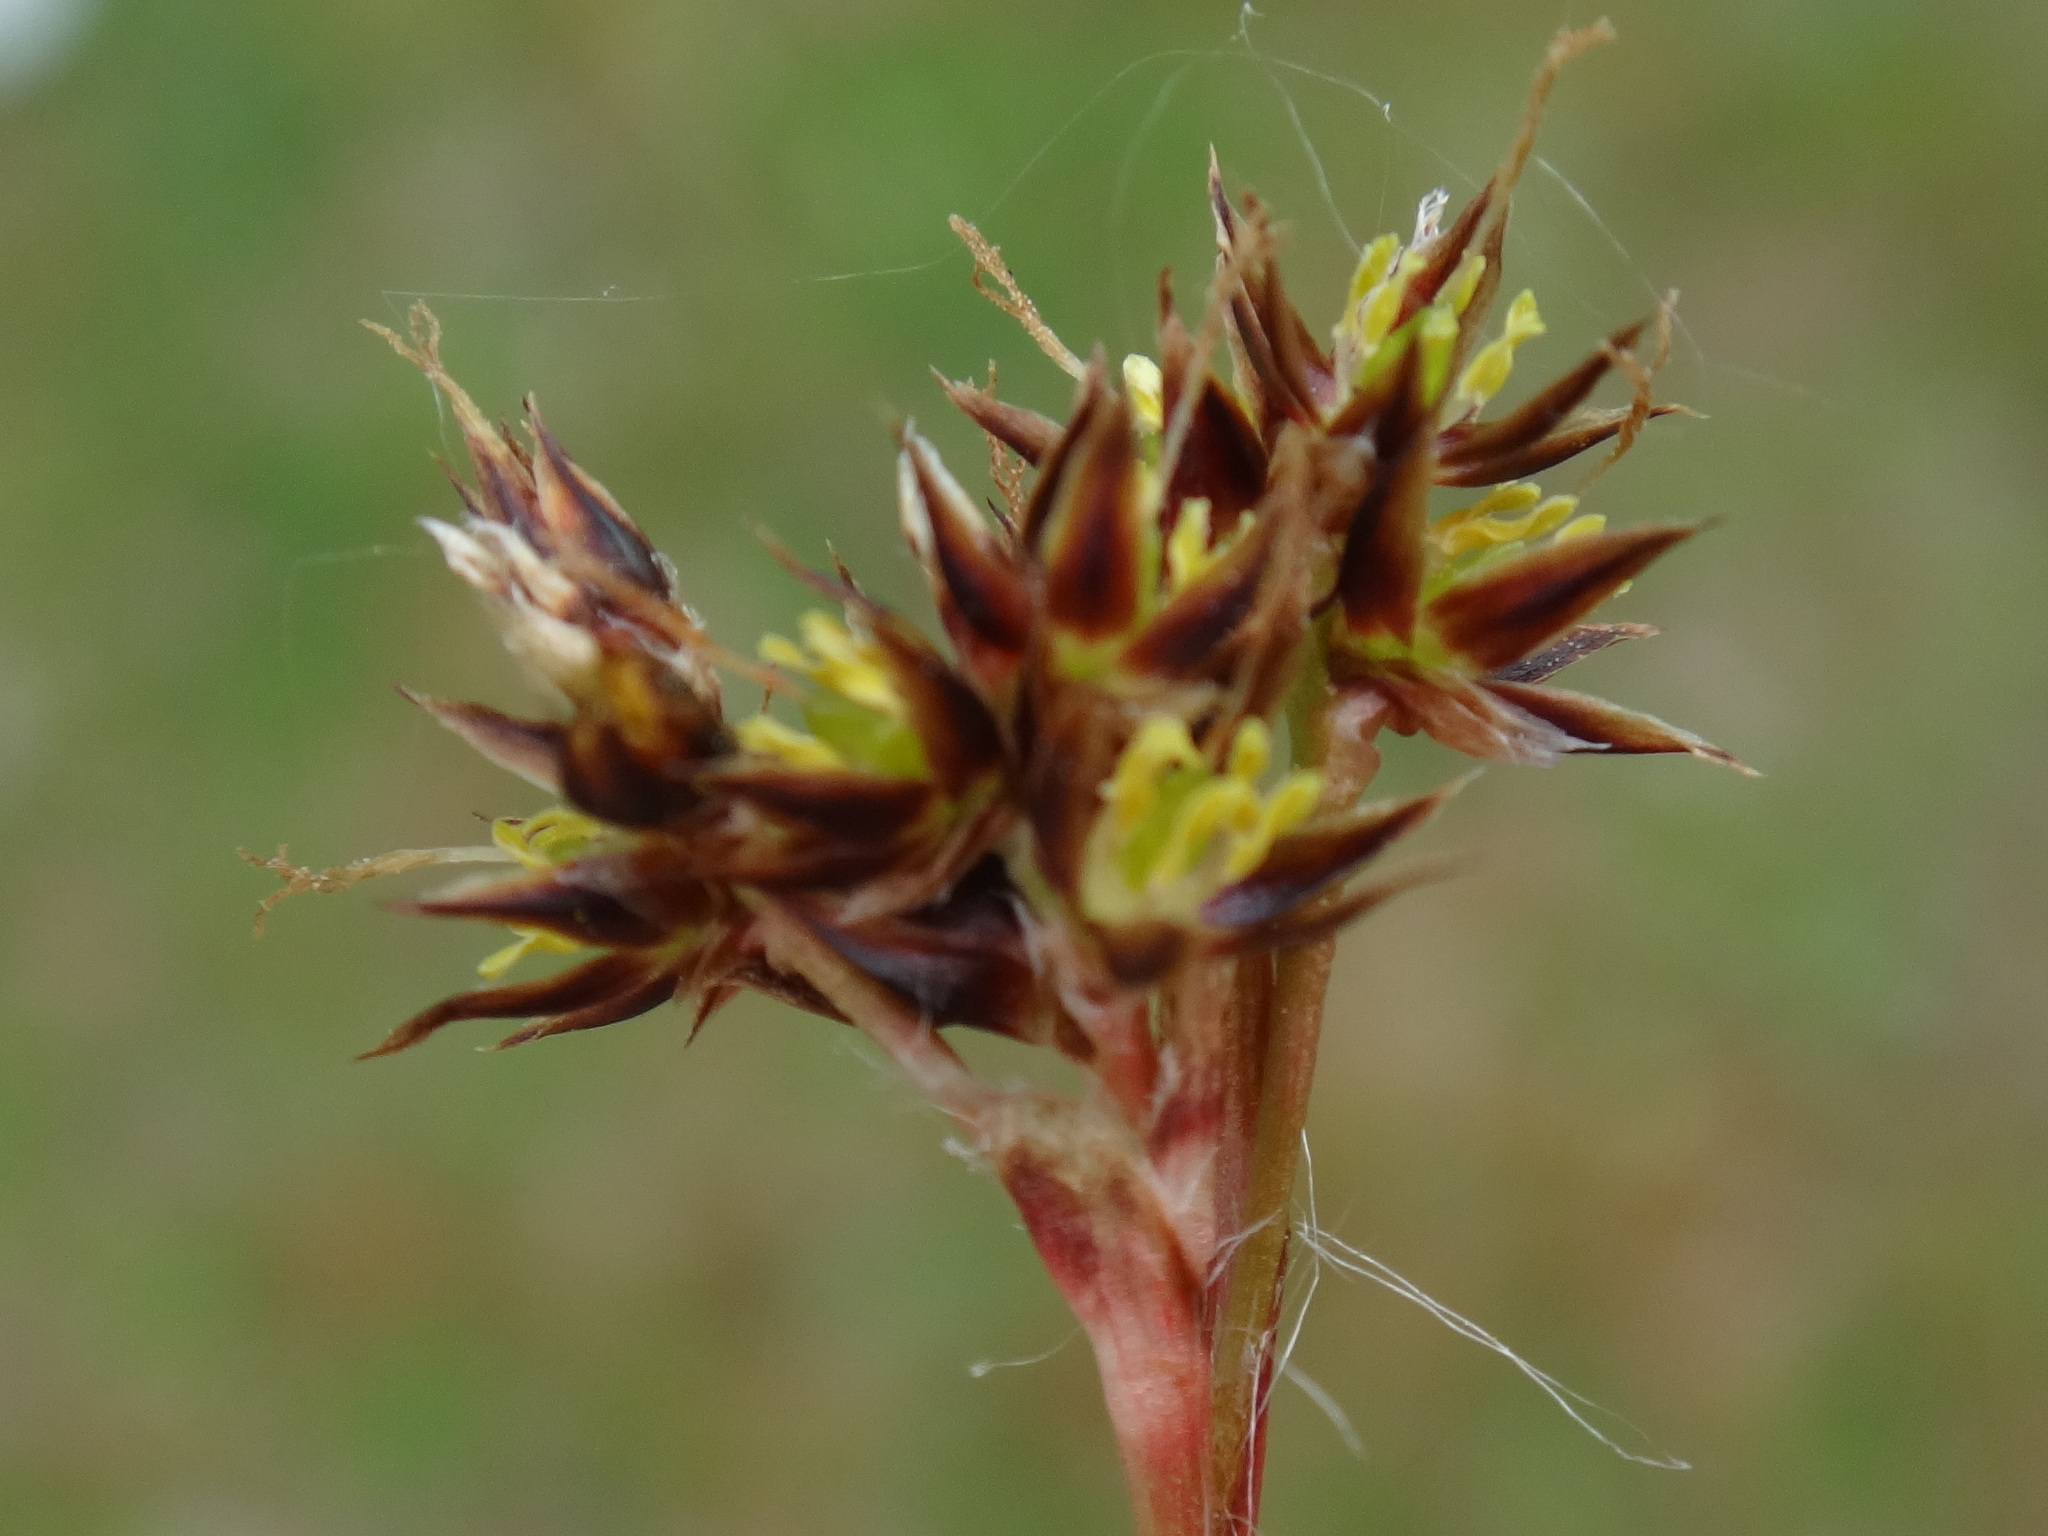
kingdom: Plantae
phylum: Tracheophyta
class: Liliopsida
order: Poales
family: Juncaceae
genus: Luzula
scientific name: Luzula campestris
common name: Field wood-rush
